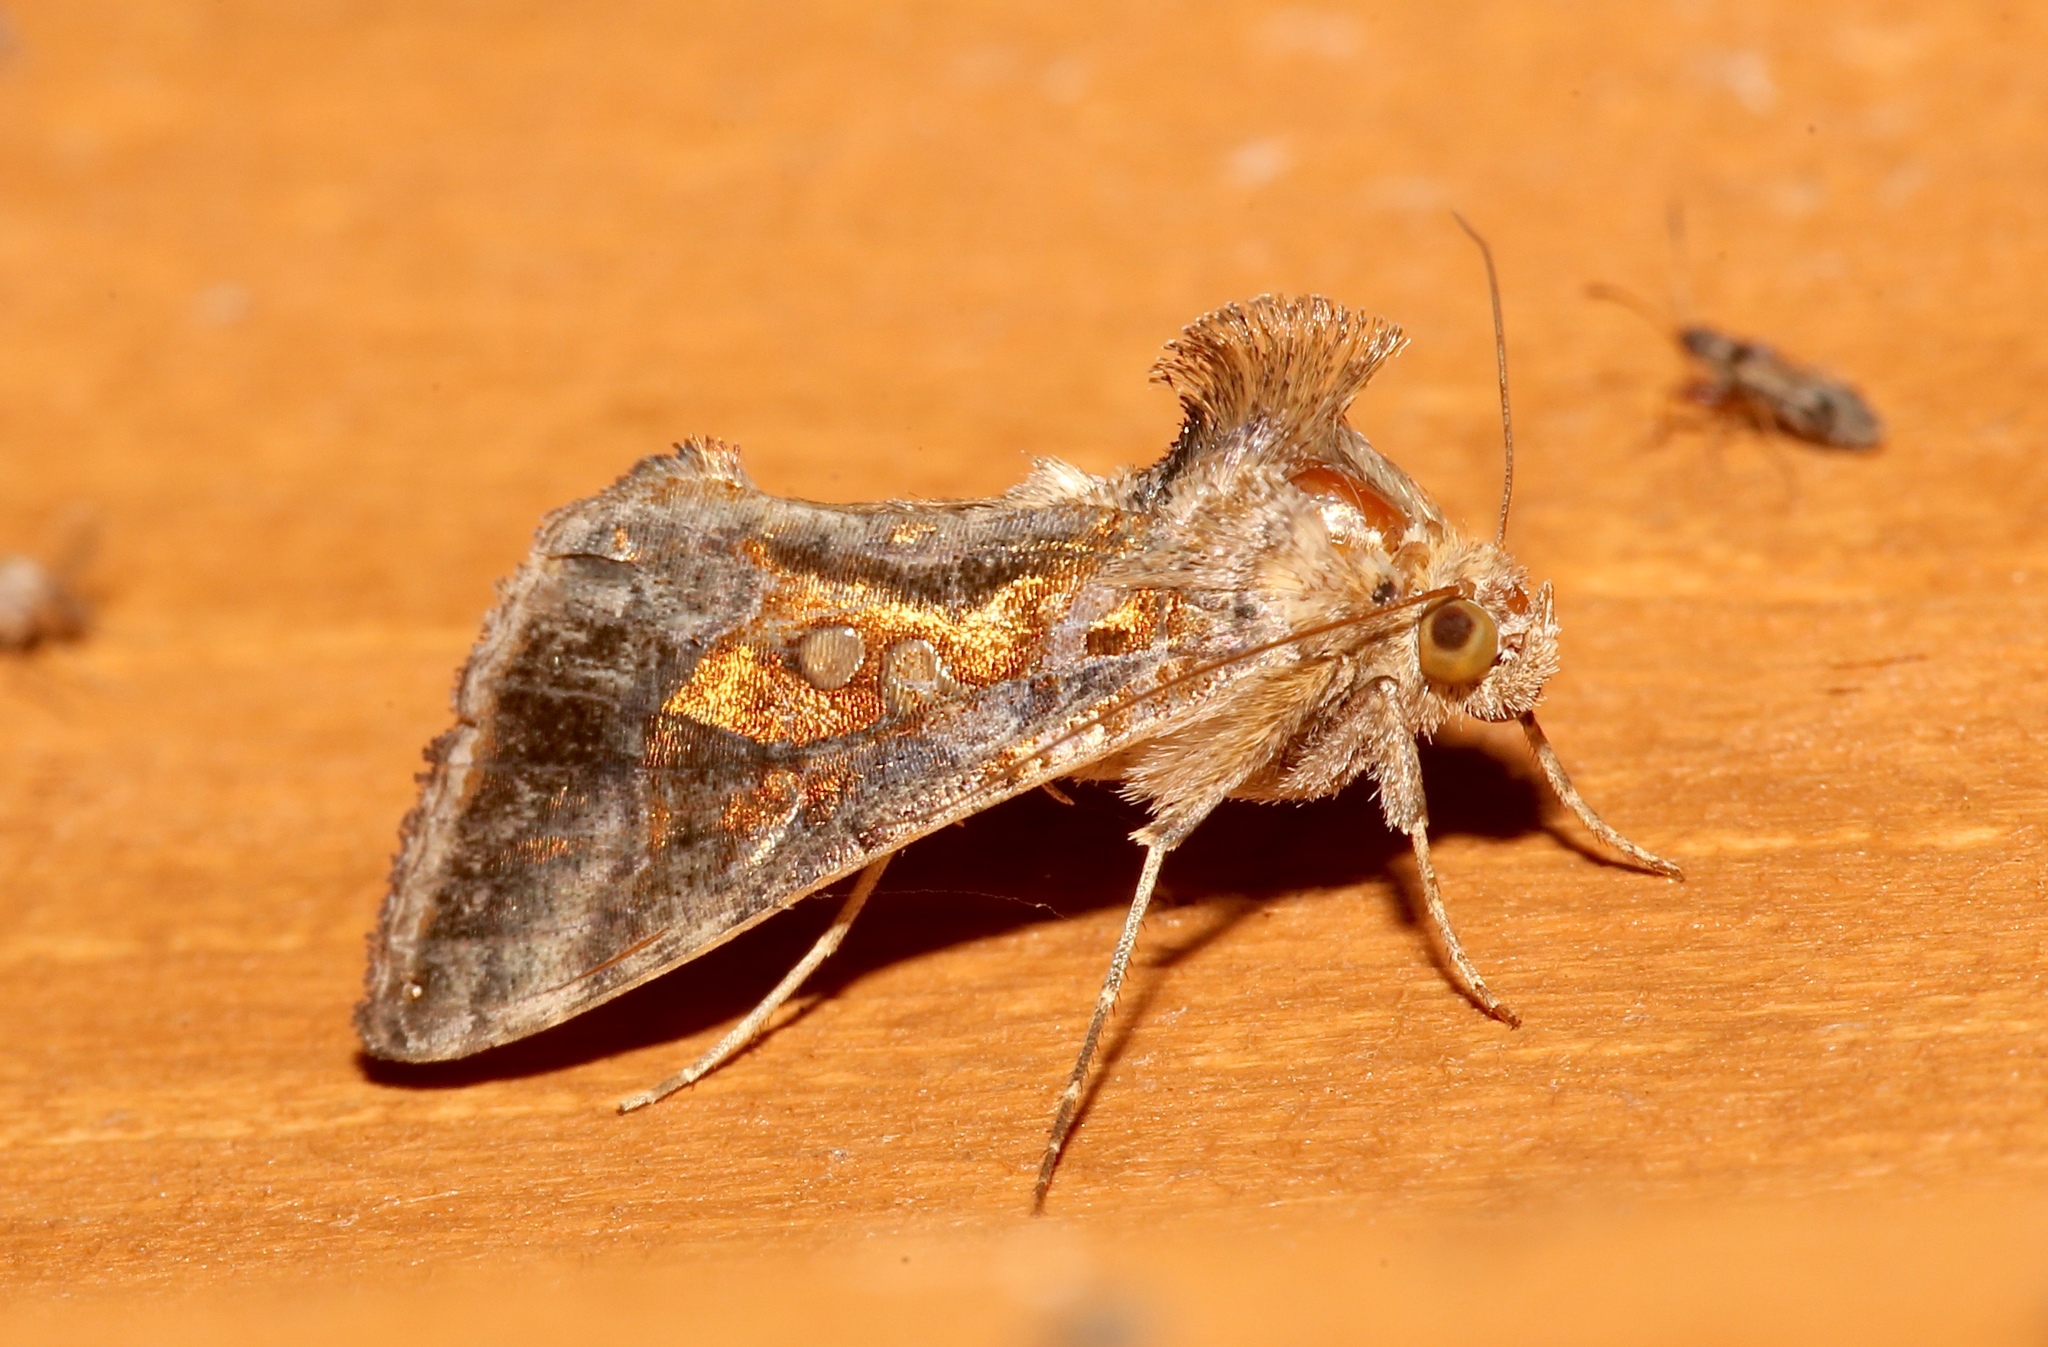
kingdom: Animalia
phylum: Arthropoda
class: Insecta
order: Lepidoptera
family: Noctuidae
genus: Chrysodeixis
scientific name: Chrysodeixis includens
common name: Cutworm moth
